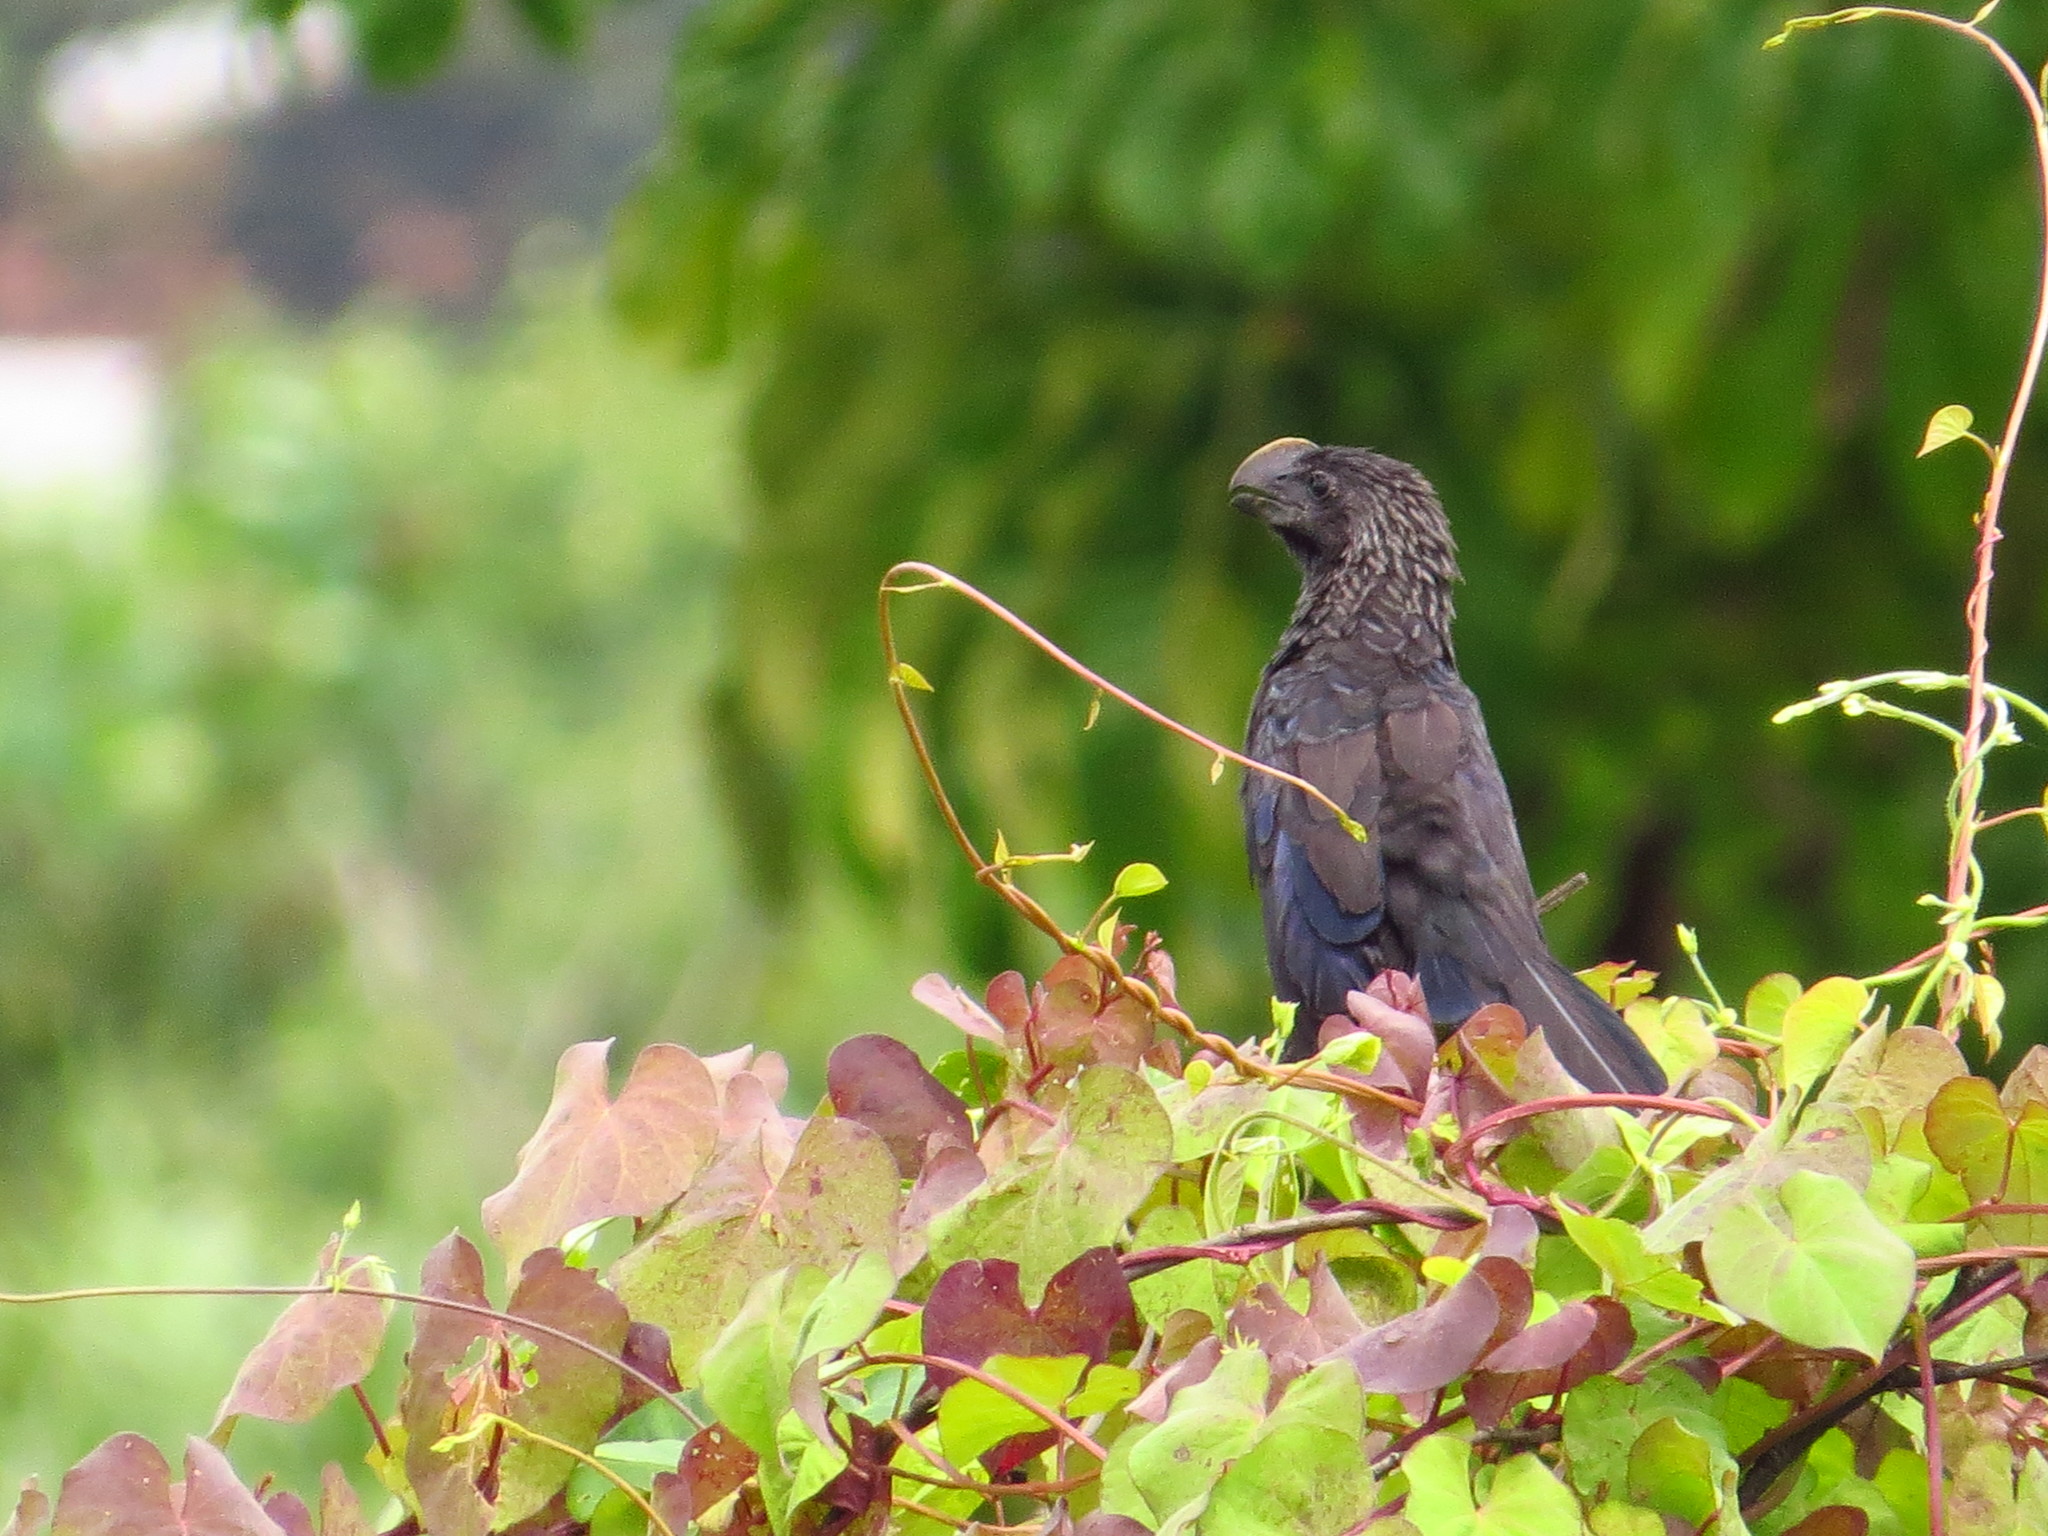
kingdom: Animalia
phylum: Chordata
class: Aves
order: Cuculiformes
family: Cuculidae
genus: Crotophaga
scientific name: Crotophaga ani
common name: Smooth-billed ani
